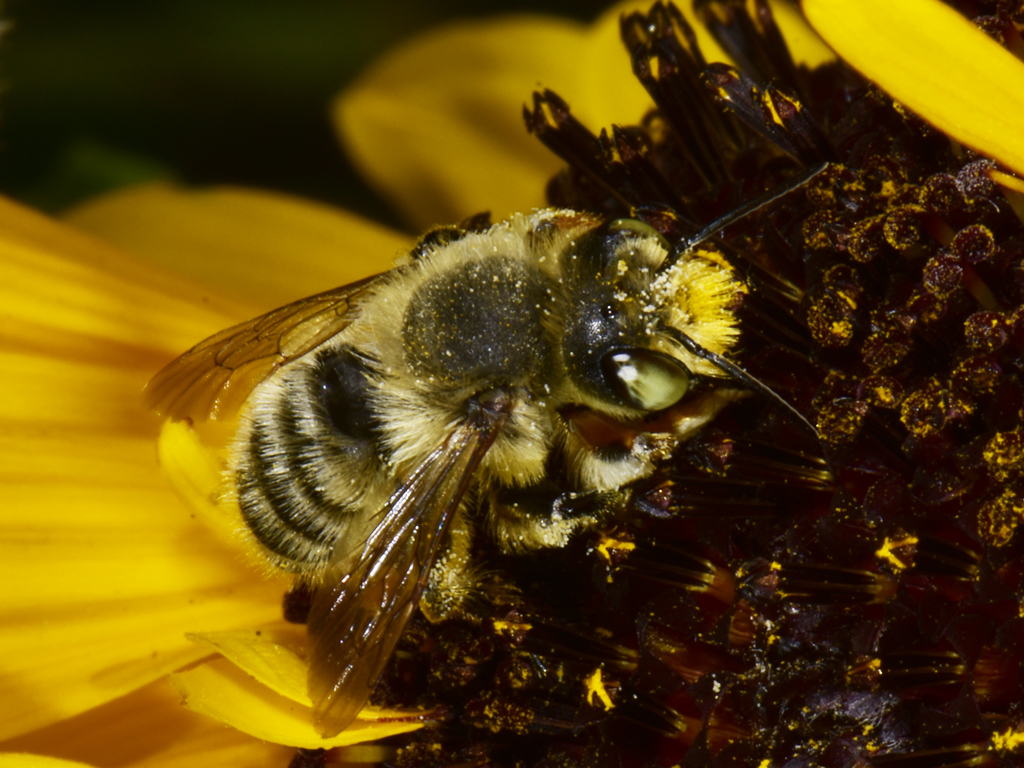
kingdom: Animalia
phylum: Arthropoda
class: Insecta
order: Hymenoptera
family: Megachilidae
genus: Megachile
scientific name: Megachile perihirta
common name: Western leafcutter
